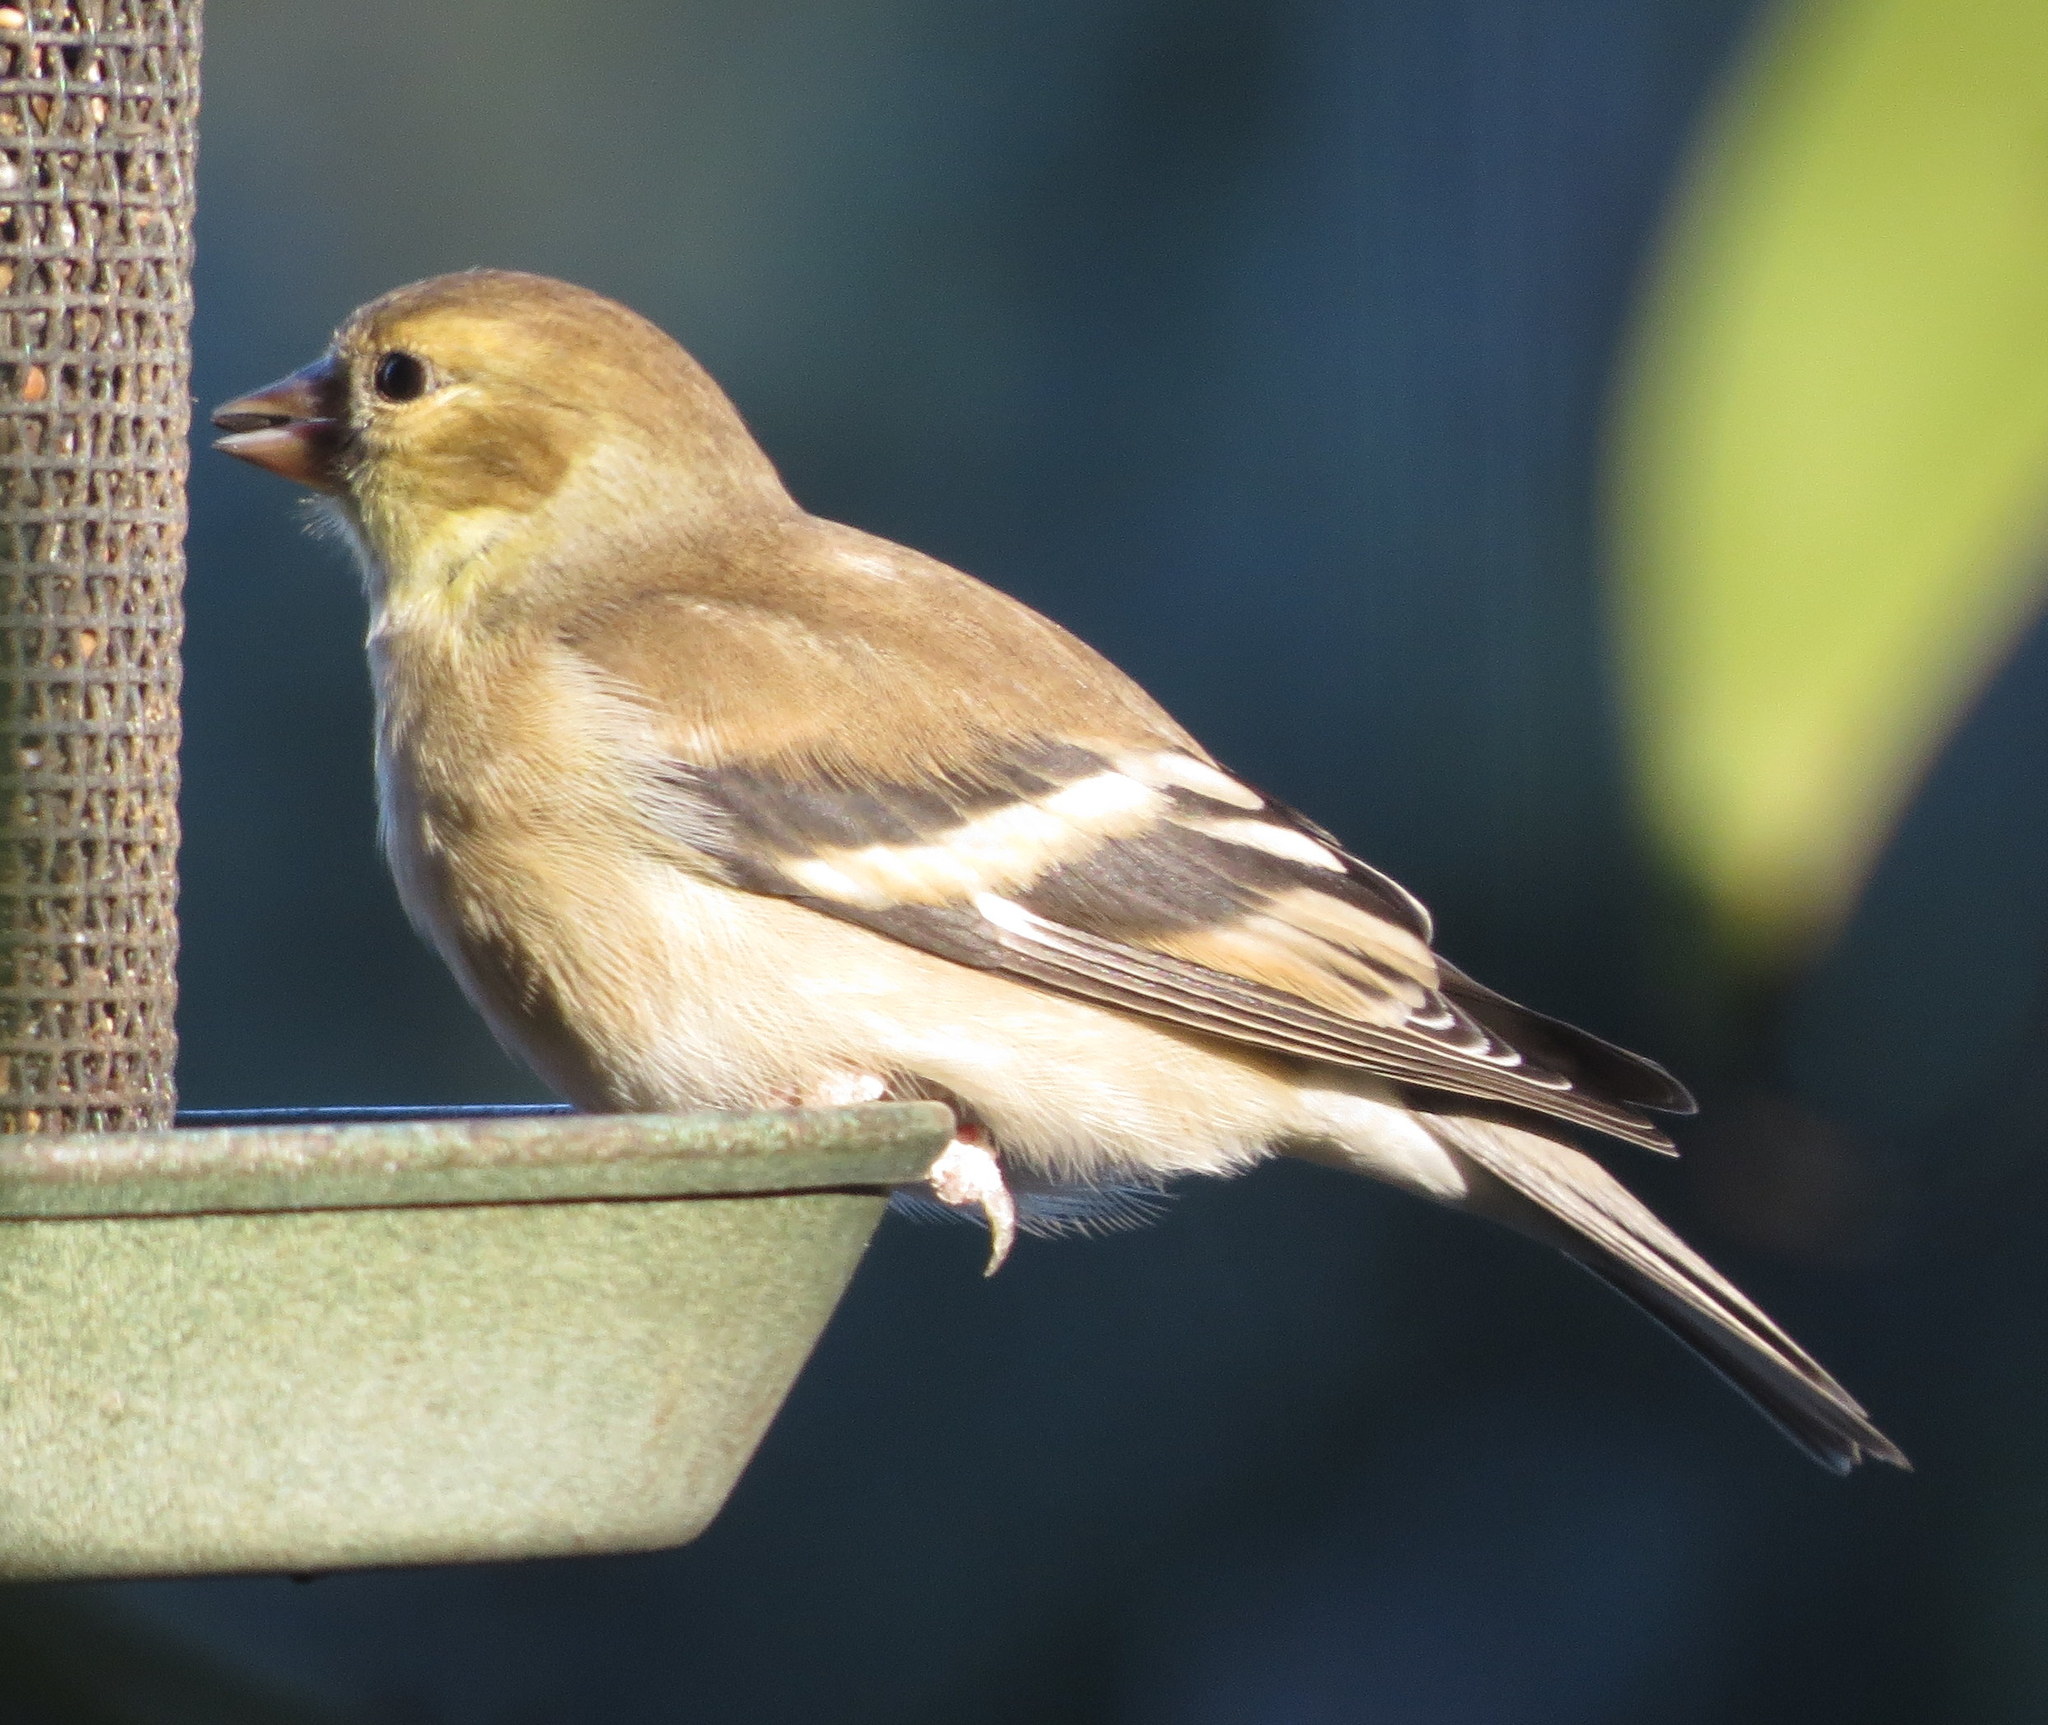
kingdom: Animalia
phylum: Chordata
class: Aves
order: Passeriformes
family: Fringillidae
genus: Spinus
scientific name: Spinus tristis
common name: American goldfinch
